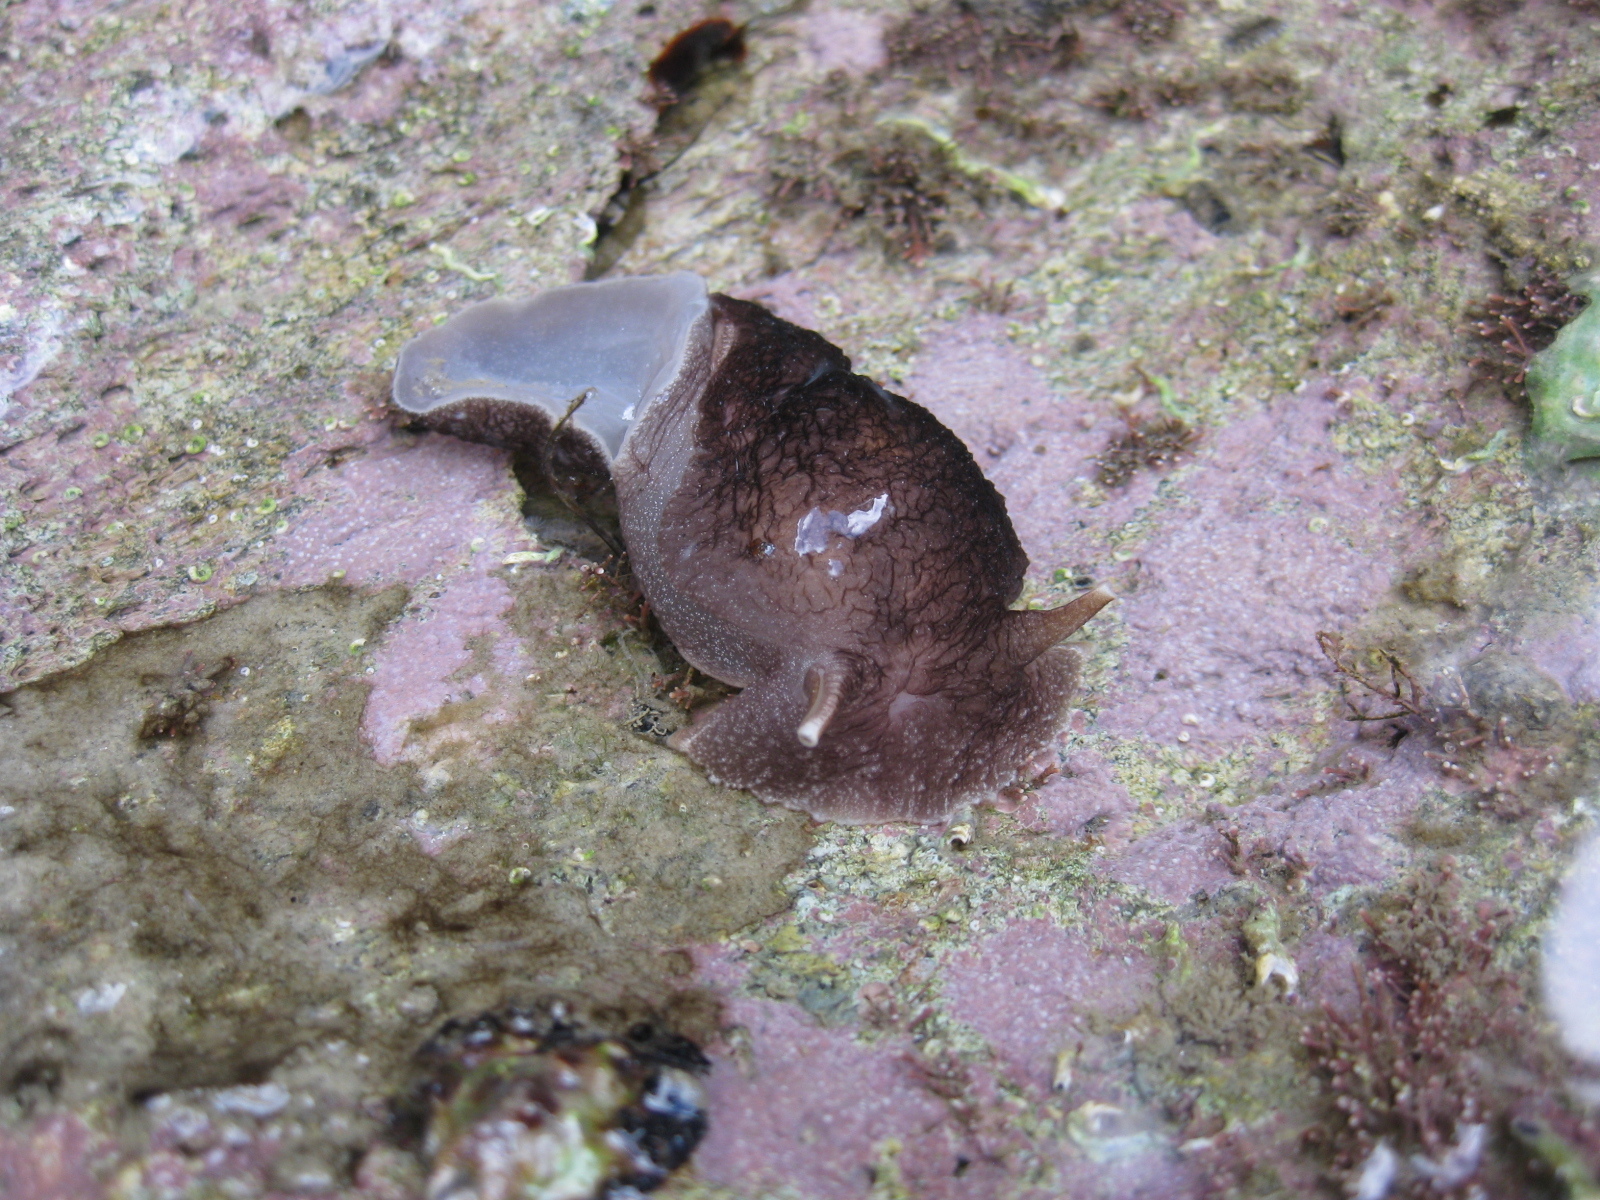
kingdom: Animalia
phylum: Mollusca
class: Gastropoda
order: Pleurobranchida
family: Pleurobranchaeidae
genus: Pleurobranchaea
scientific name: Pleurobranchaea maculata
